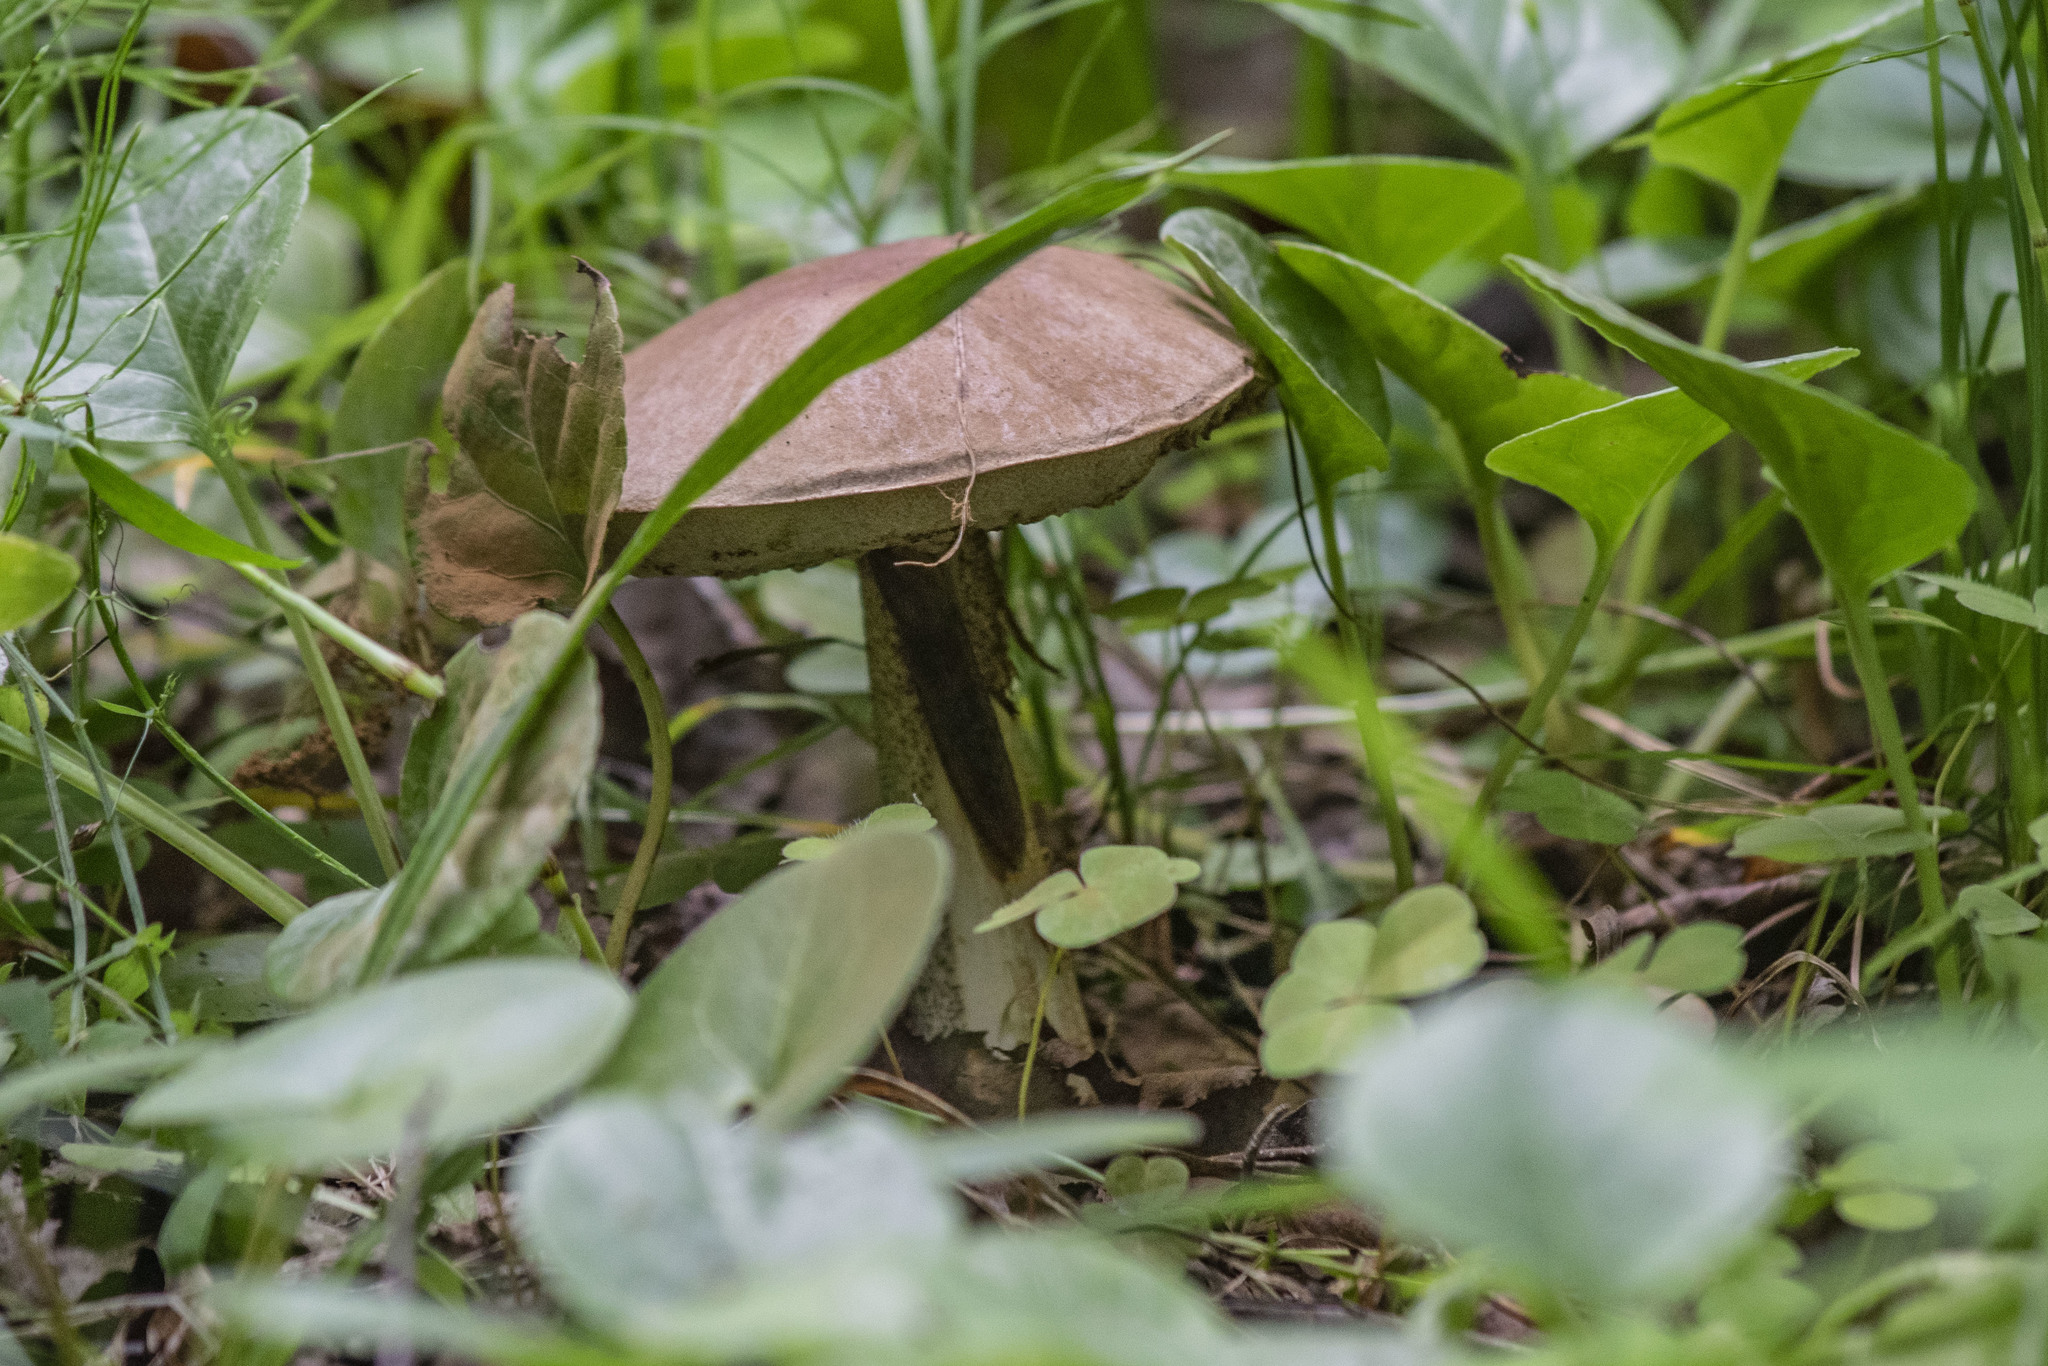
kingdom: Fungi
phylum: Basidiomycota
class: Agaricomycetes
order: Boletales
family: Boletaceae
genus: Leccinum
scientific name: Leccinum scabrum
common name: Blushing bolete
